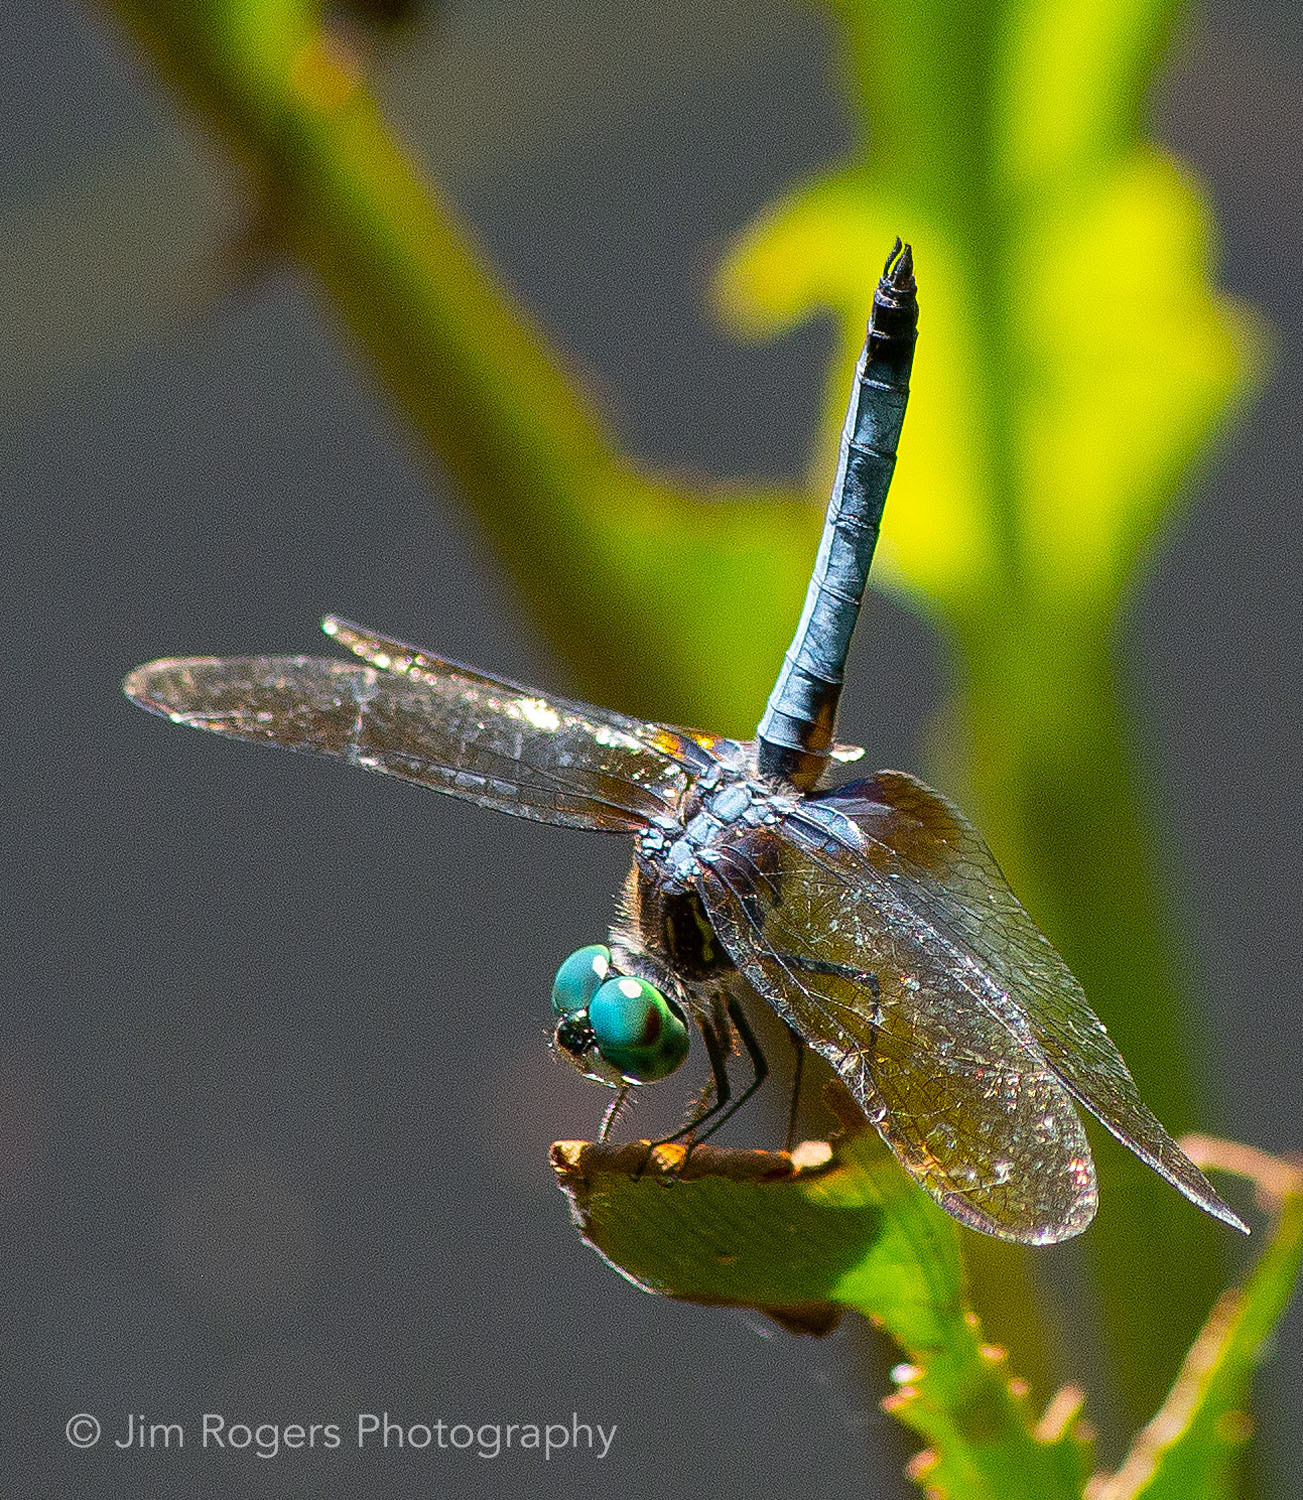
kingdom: Animalia
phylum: Arthropoda
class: Insecta
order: Odonata
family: Libellulidae
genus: Pachydiplax
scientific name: Pachydiplax longipennis
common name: Blue dasher
